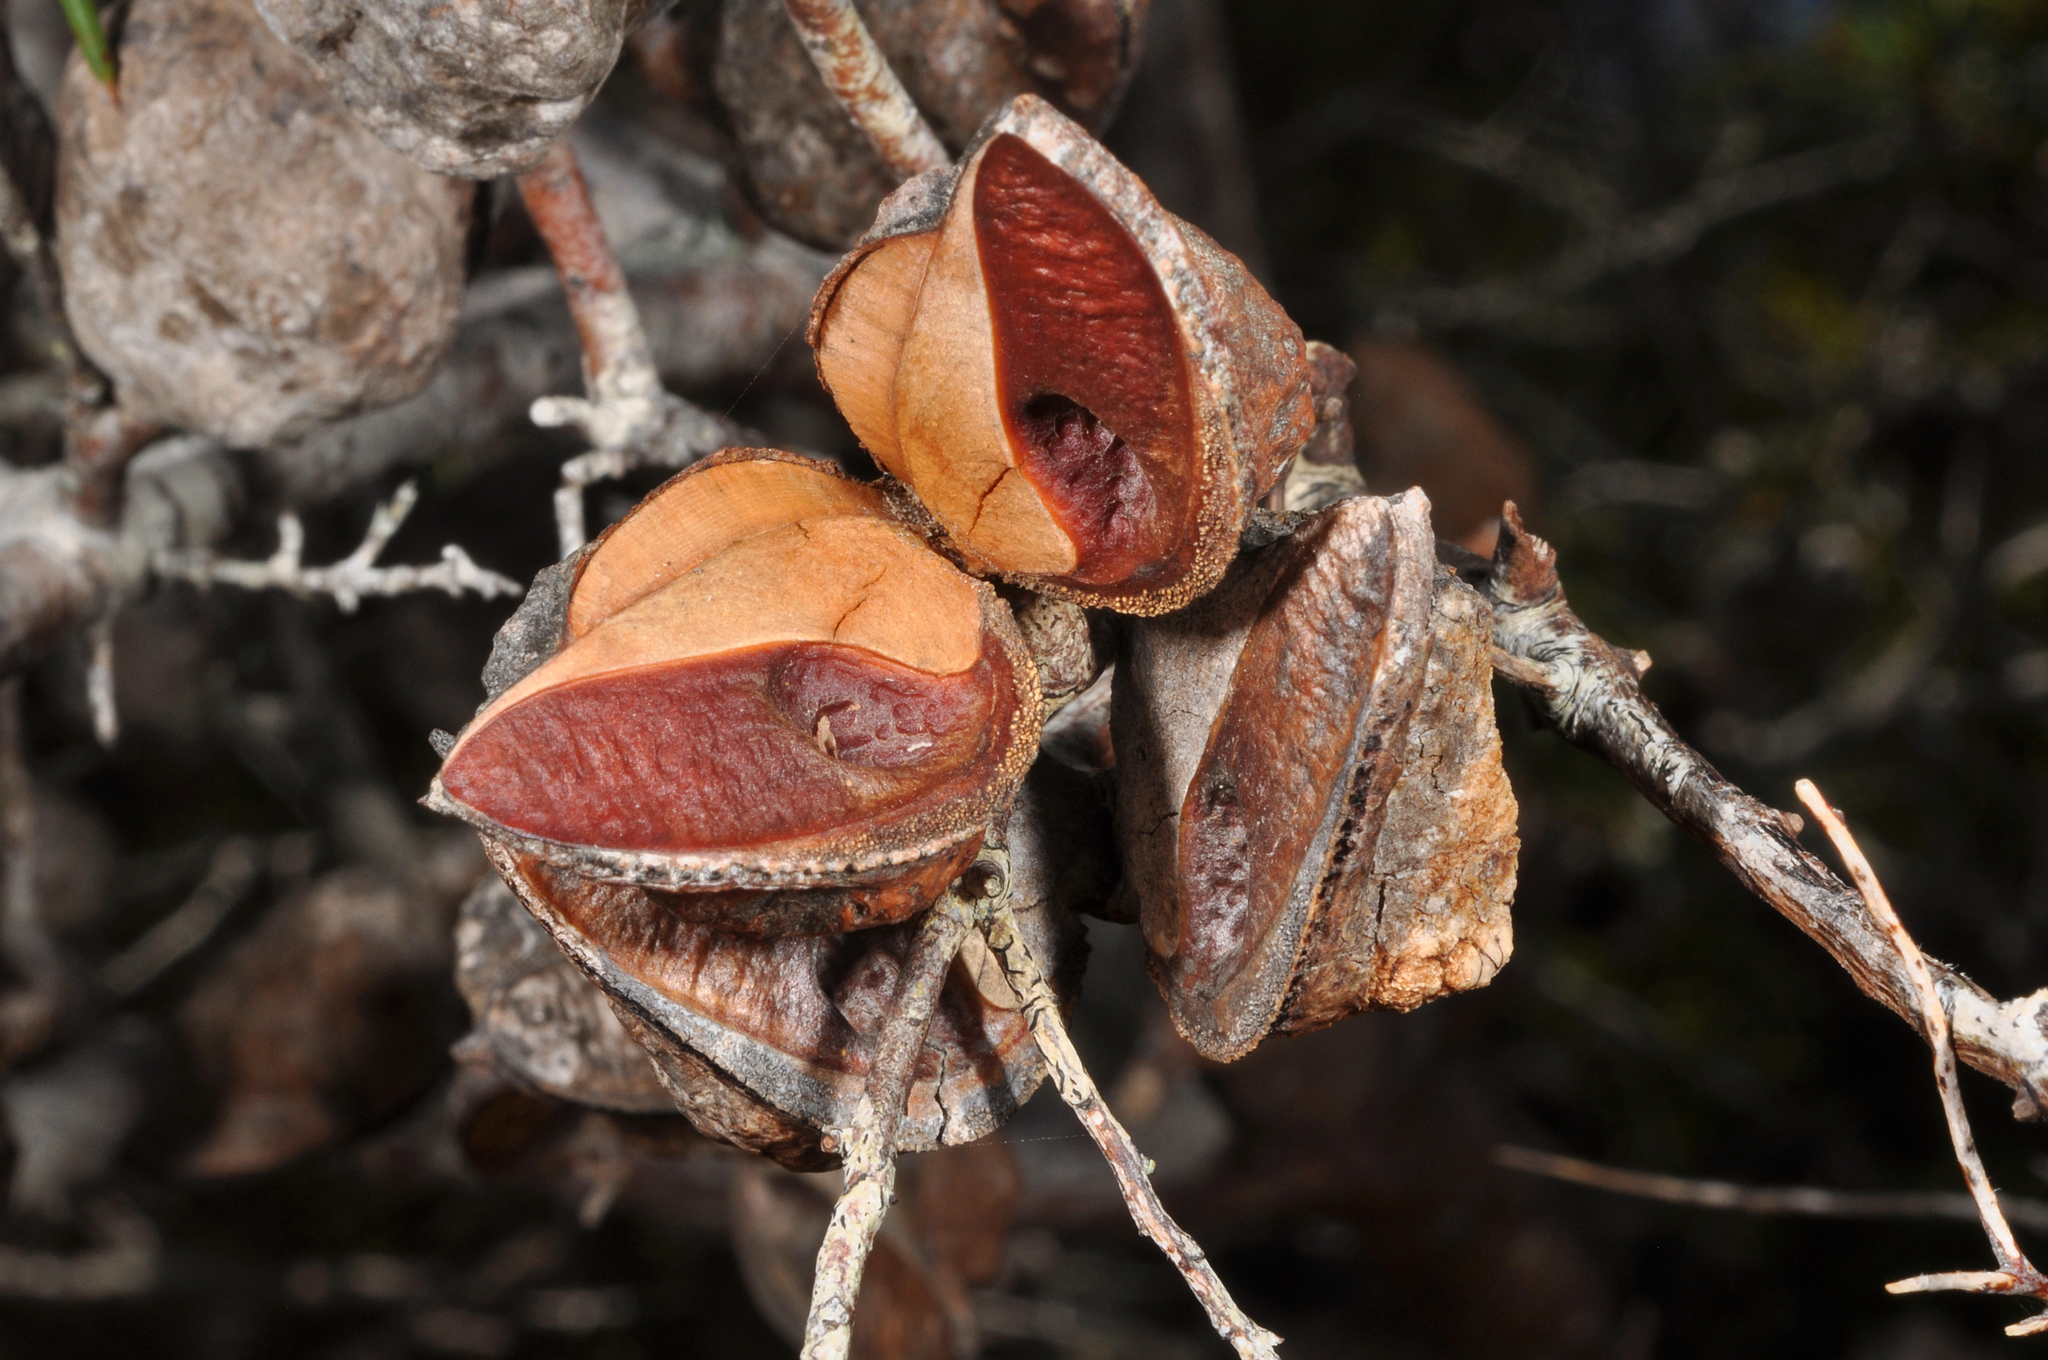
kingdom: Plantae
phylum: Tracheophyta
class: Magnoliopsida
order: Proteales
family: Proteaceae
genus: Hakea
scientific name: Hakea sericea
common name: Needle bush
